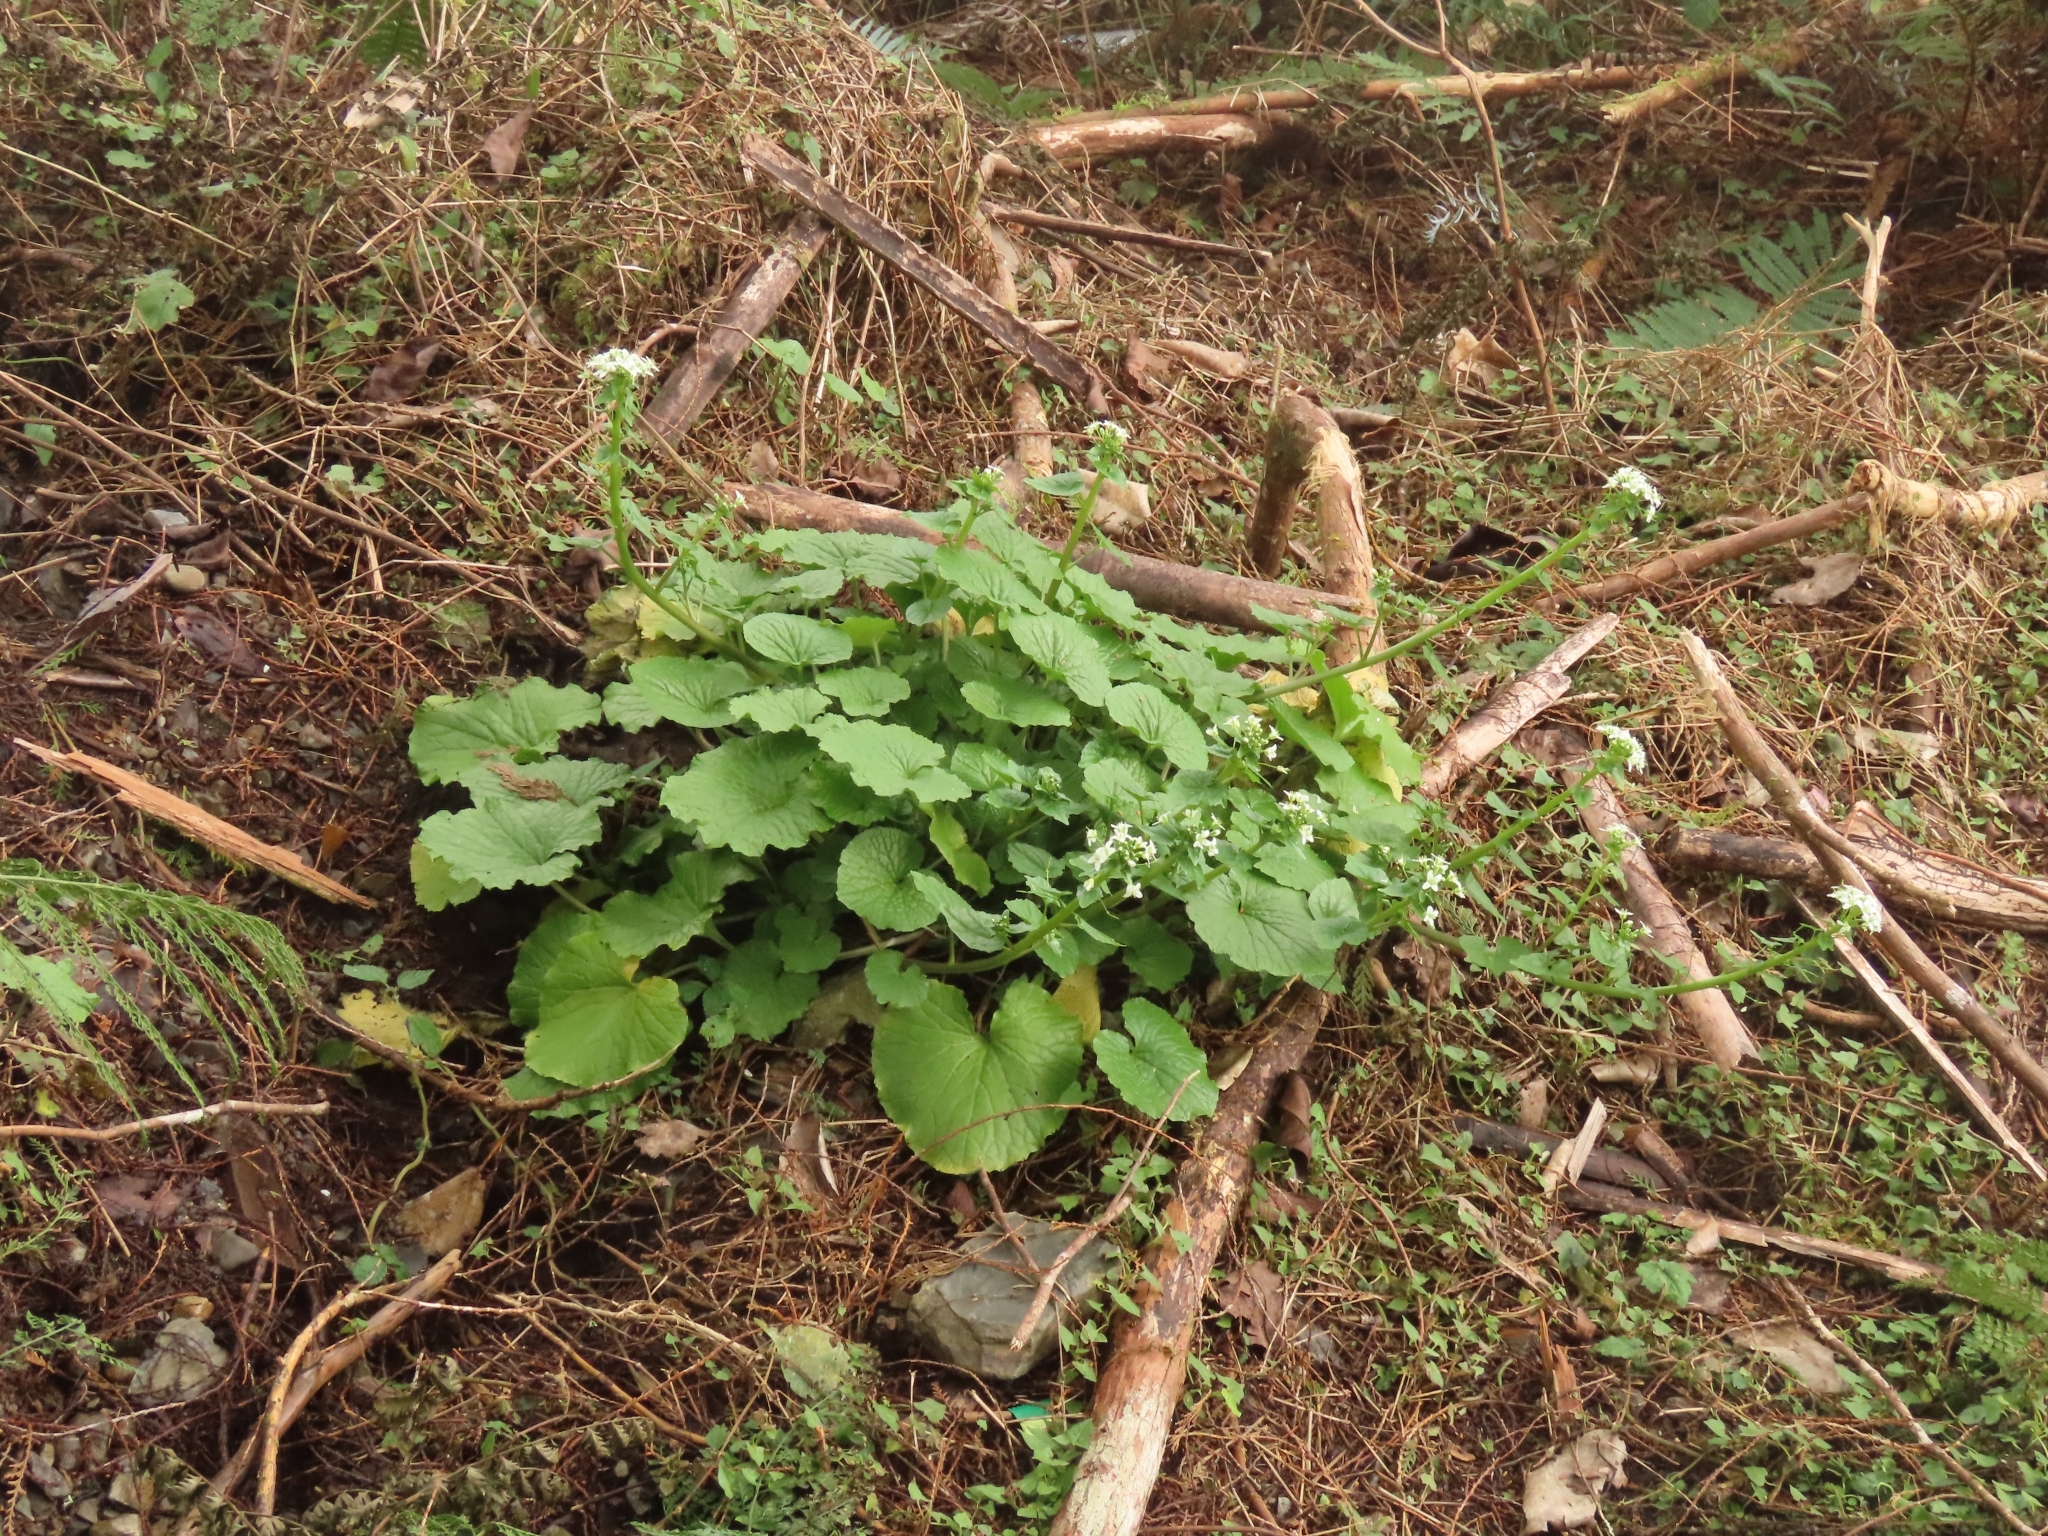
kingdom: Plantae
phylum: Tracheophyta
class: Magnoliopsida
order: Brassicales
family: Brassicaceae
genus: Eutrema
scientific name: Eutrema japonicum
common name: Japanese-horseradish
